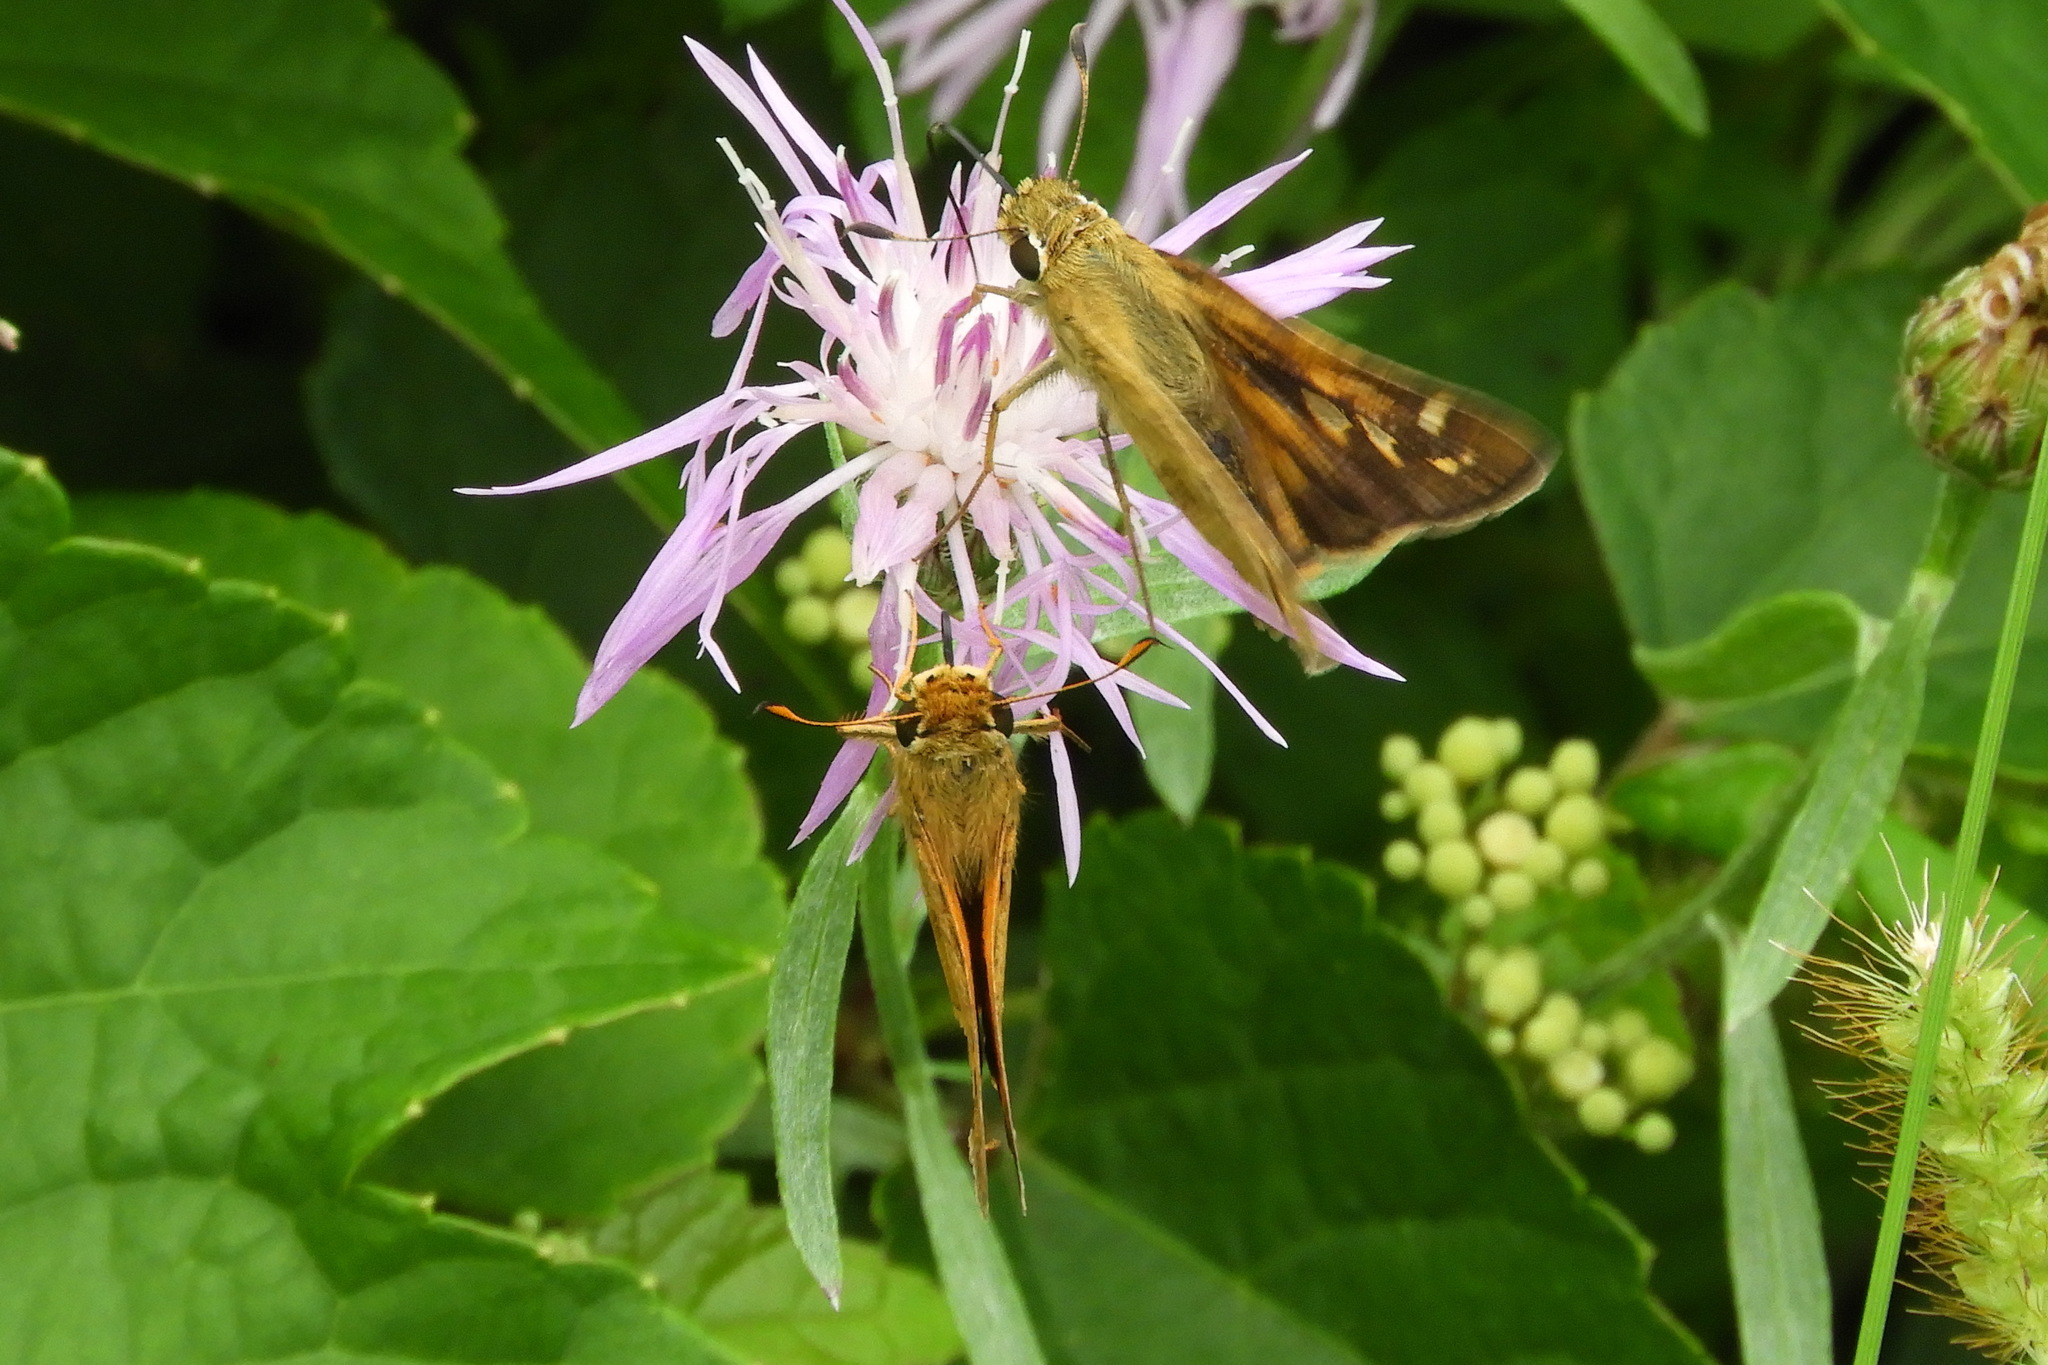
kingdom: Animalia
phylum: Arthropoda
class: Insecta
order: Lepidoptera
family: Hesperiidae
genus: Atalopedes
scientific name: Atalopedes
